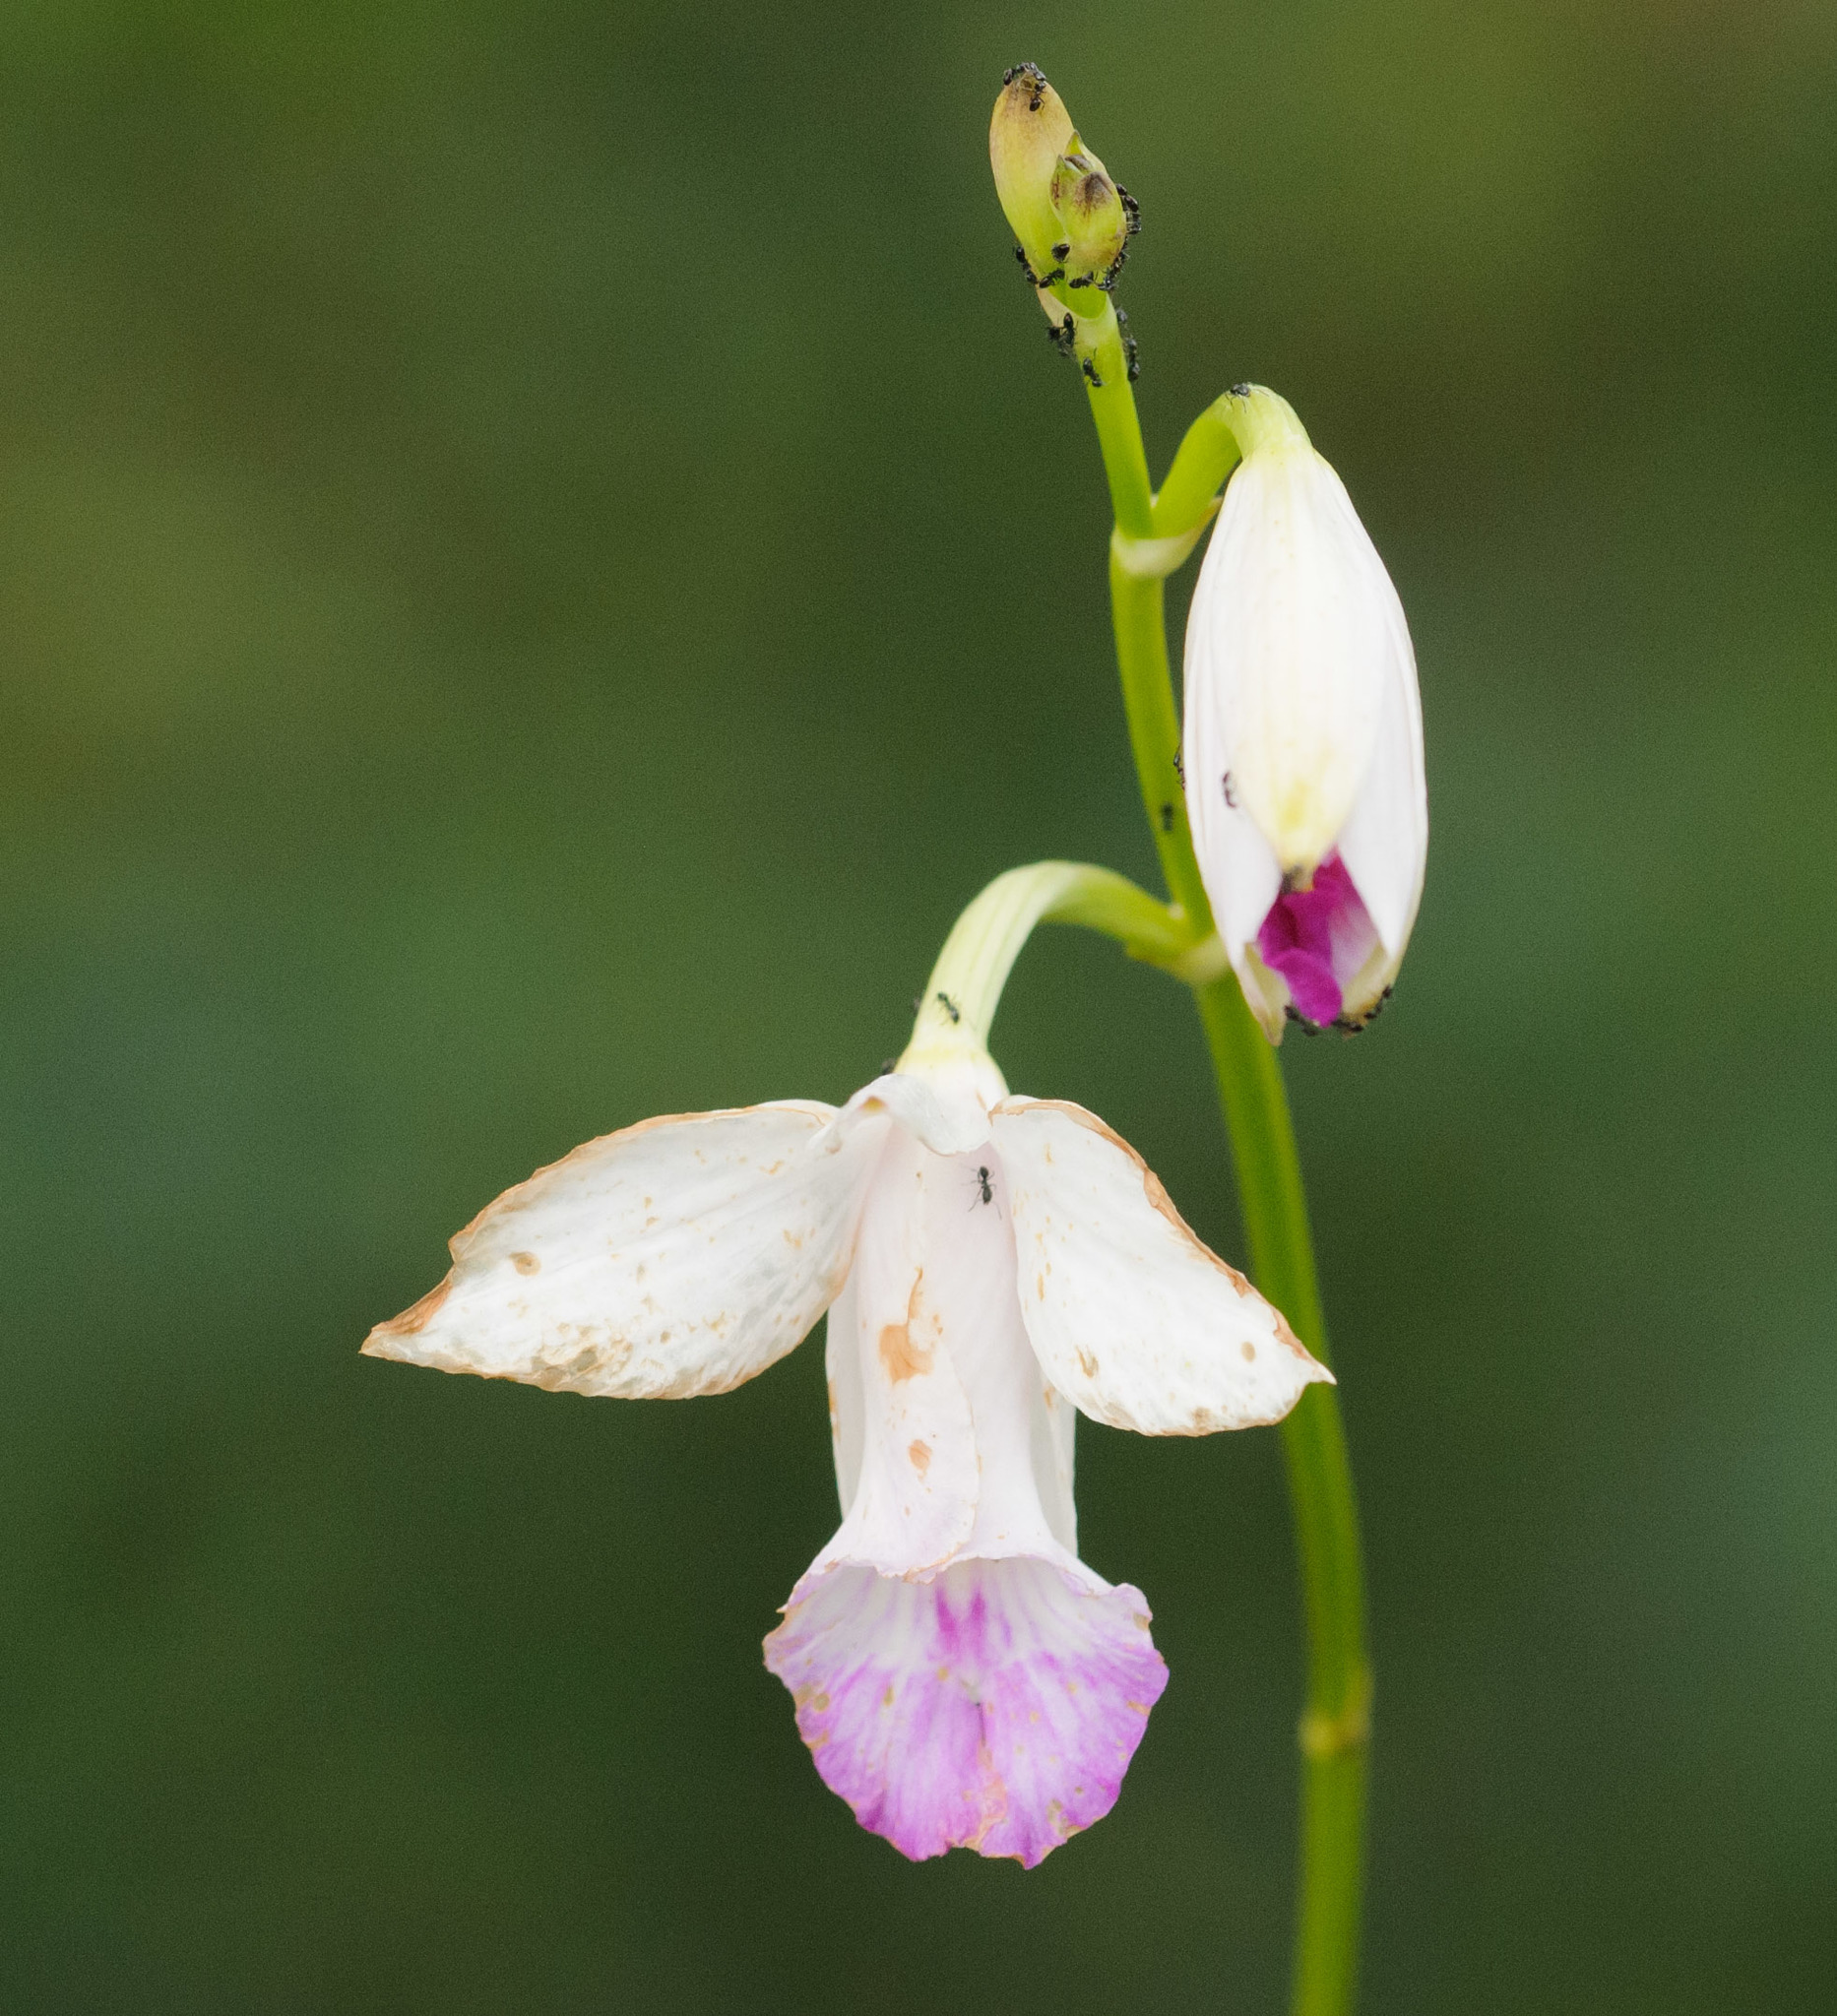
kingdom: Plantae
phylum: Tracheophyta
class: Liliopsida
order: Asparagales
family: Orchidaceae
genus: Arundina
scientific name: Arundina graminifolia
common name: Bamboo orchid
